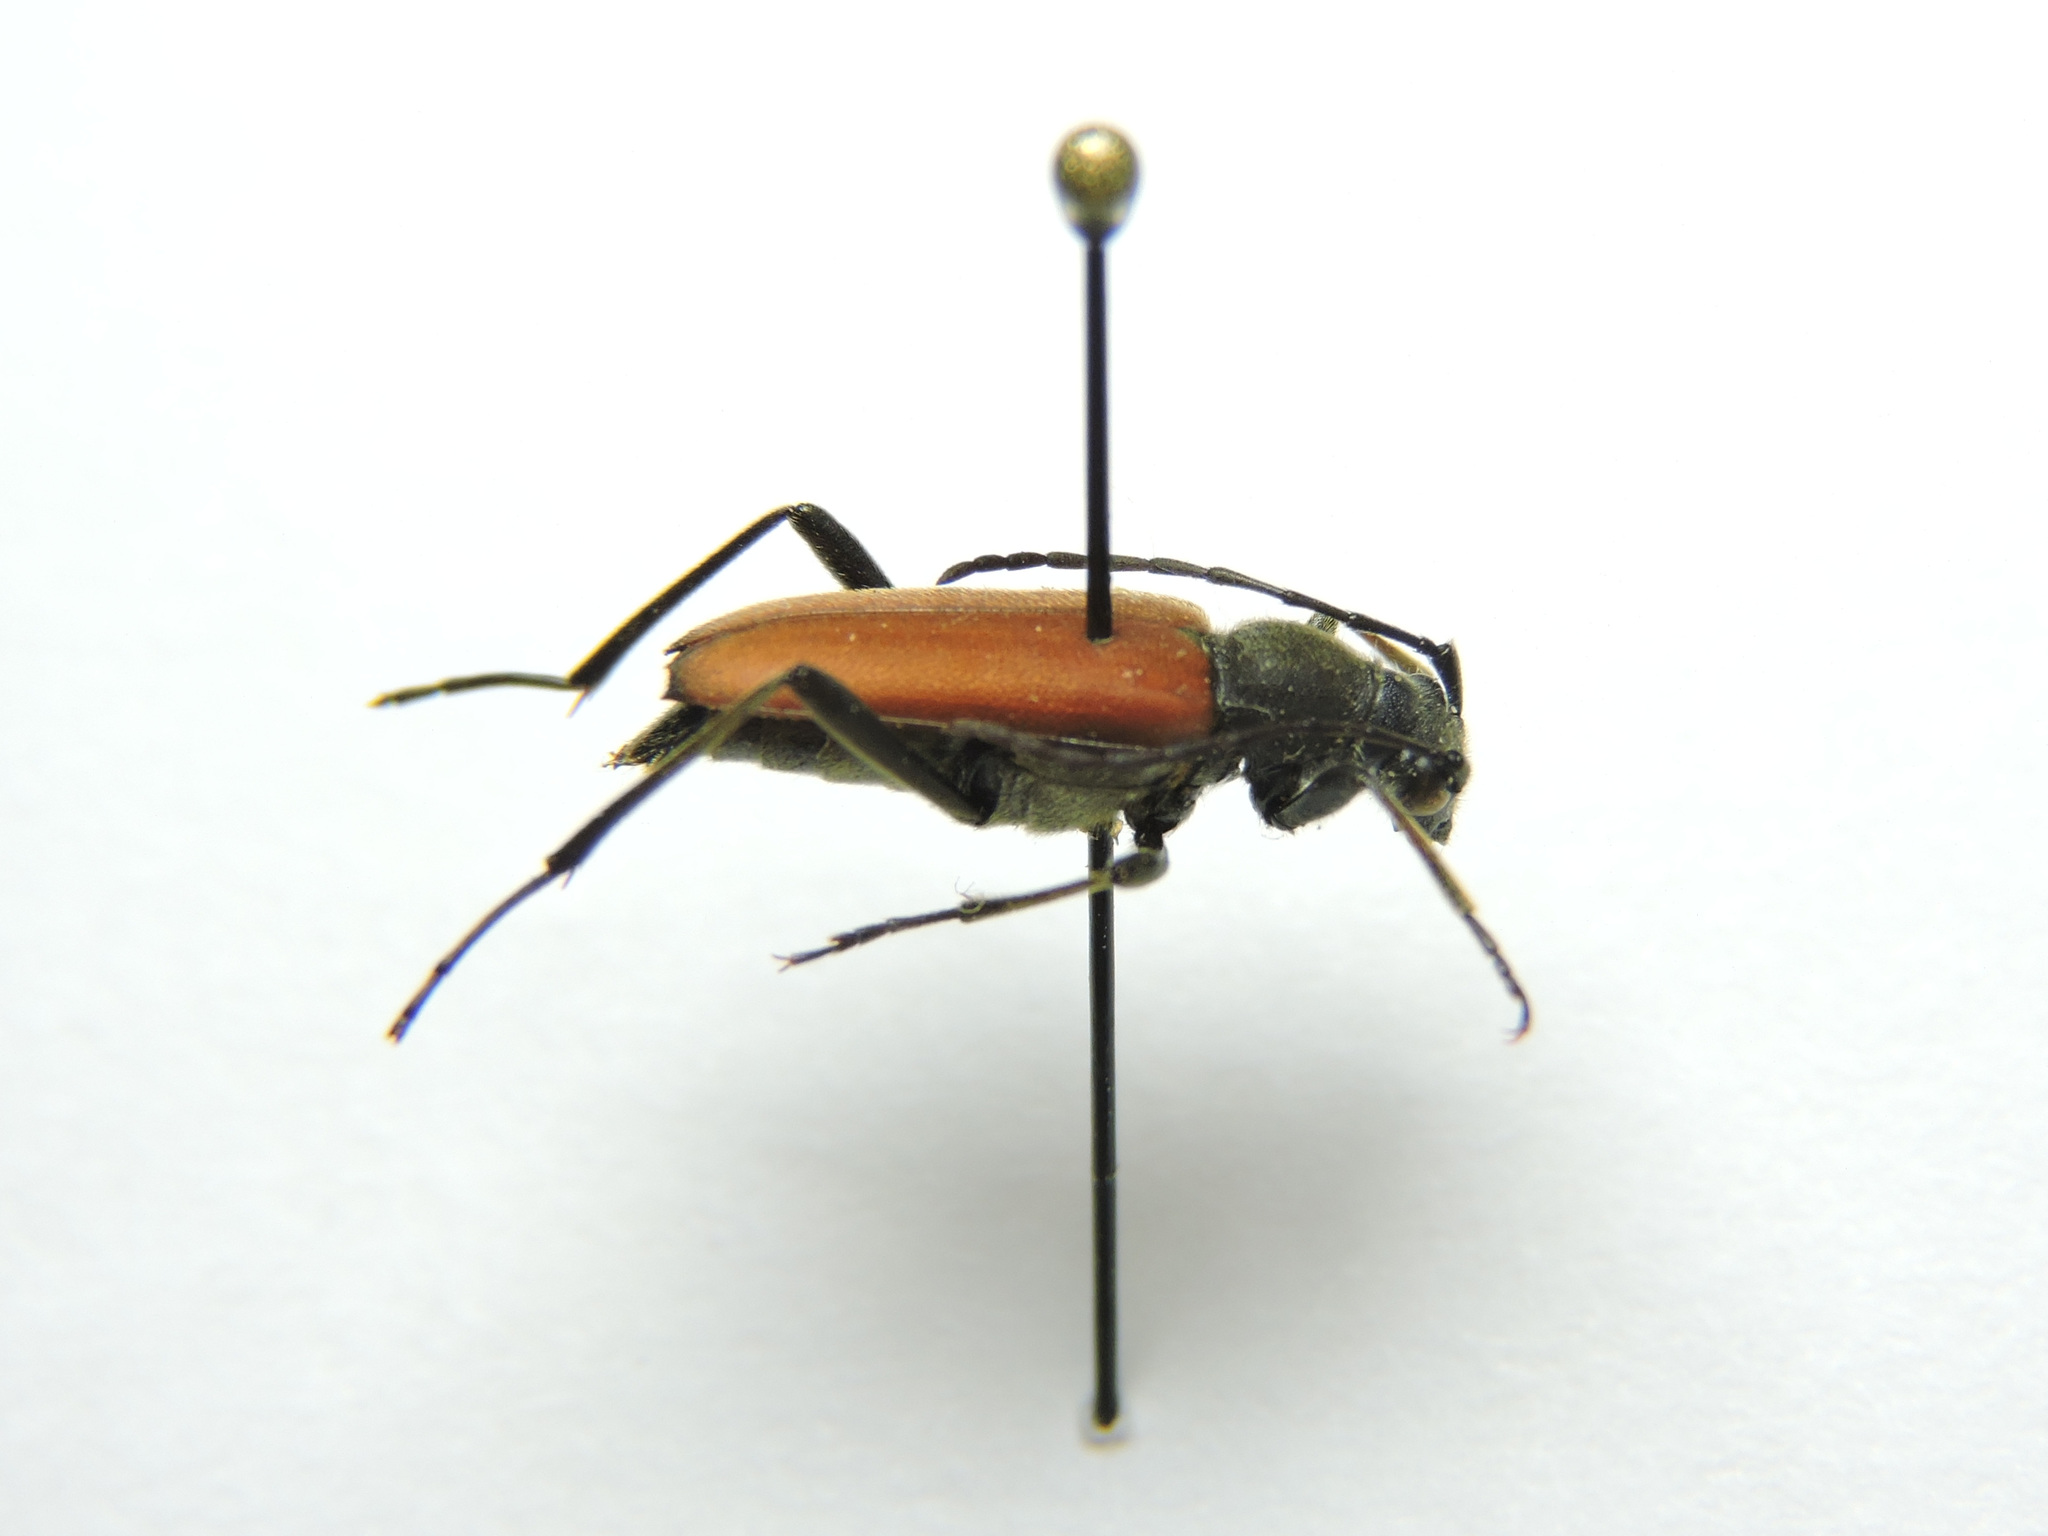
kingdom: Animalia
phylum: Arthropoda
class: Insecta
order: Coleoptera
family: Cerambycidae
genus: Anastrangalia
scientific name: Anastrangalia reyi
